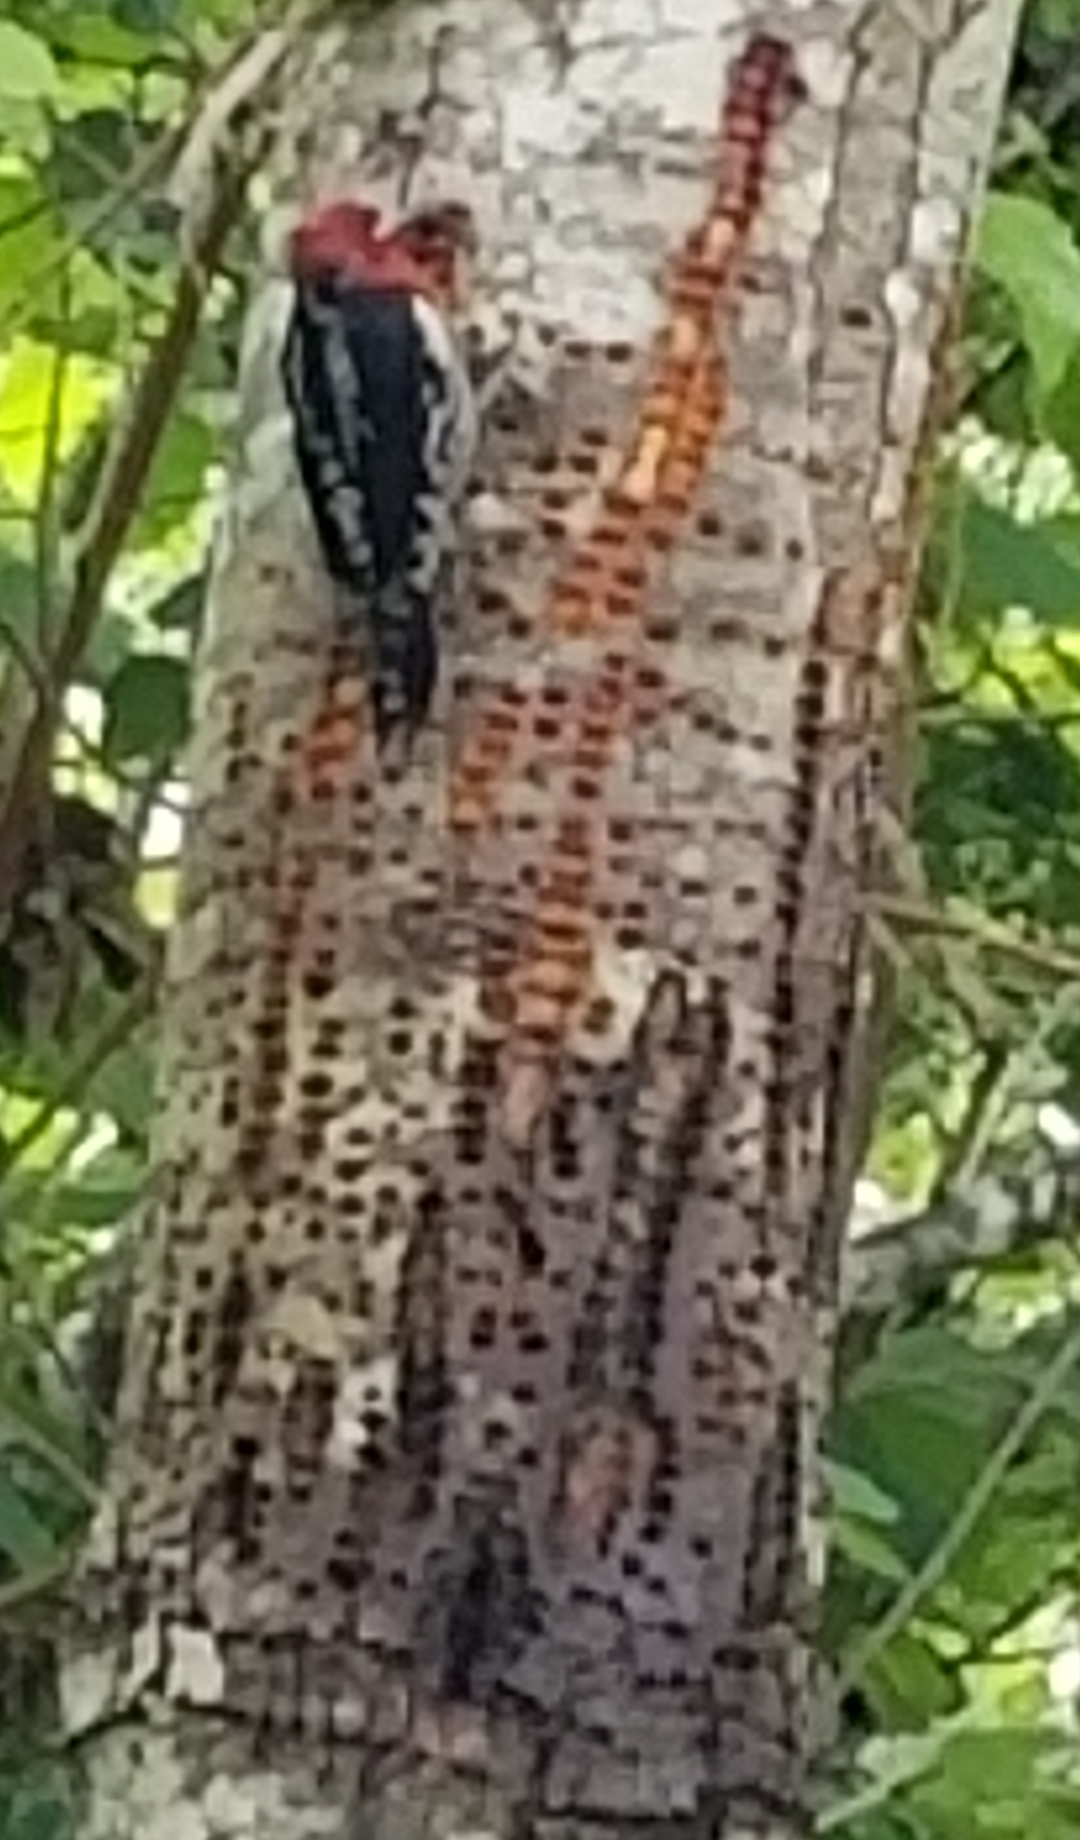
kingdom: Animalia
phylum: Chordata
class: Aves
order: Piciformes
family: Picidae
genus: Sphyrapicus
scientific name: Sphyrapicus ruber
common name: Red-breasted sapsucker
